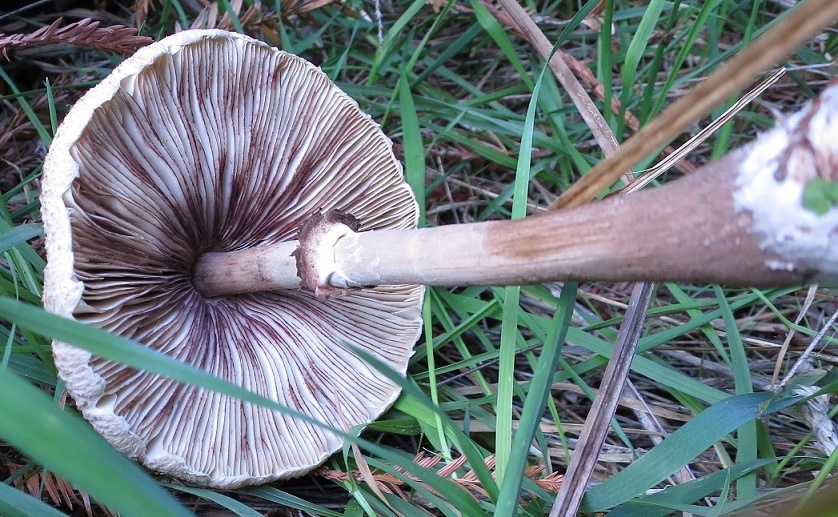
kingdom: Fungi
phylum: Basidiomycota
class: Agaricomycetes
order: Agaricales
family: Agaricaceae
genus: Macrolepiota
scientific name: Macrolepiota clelandii
